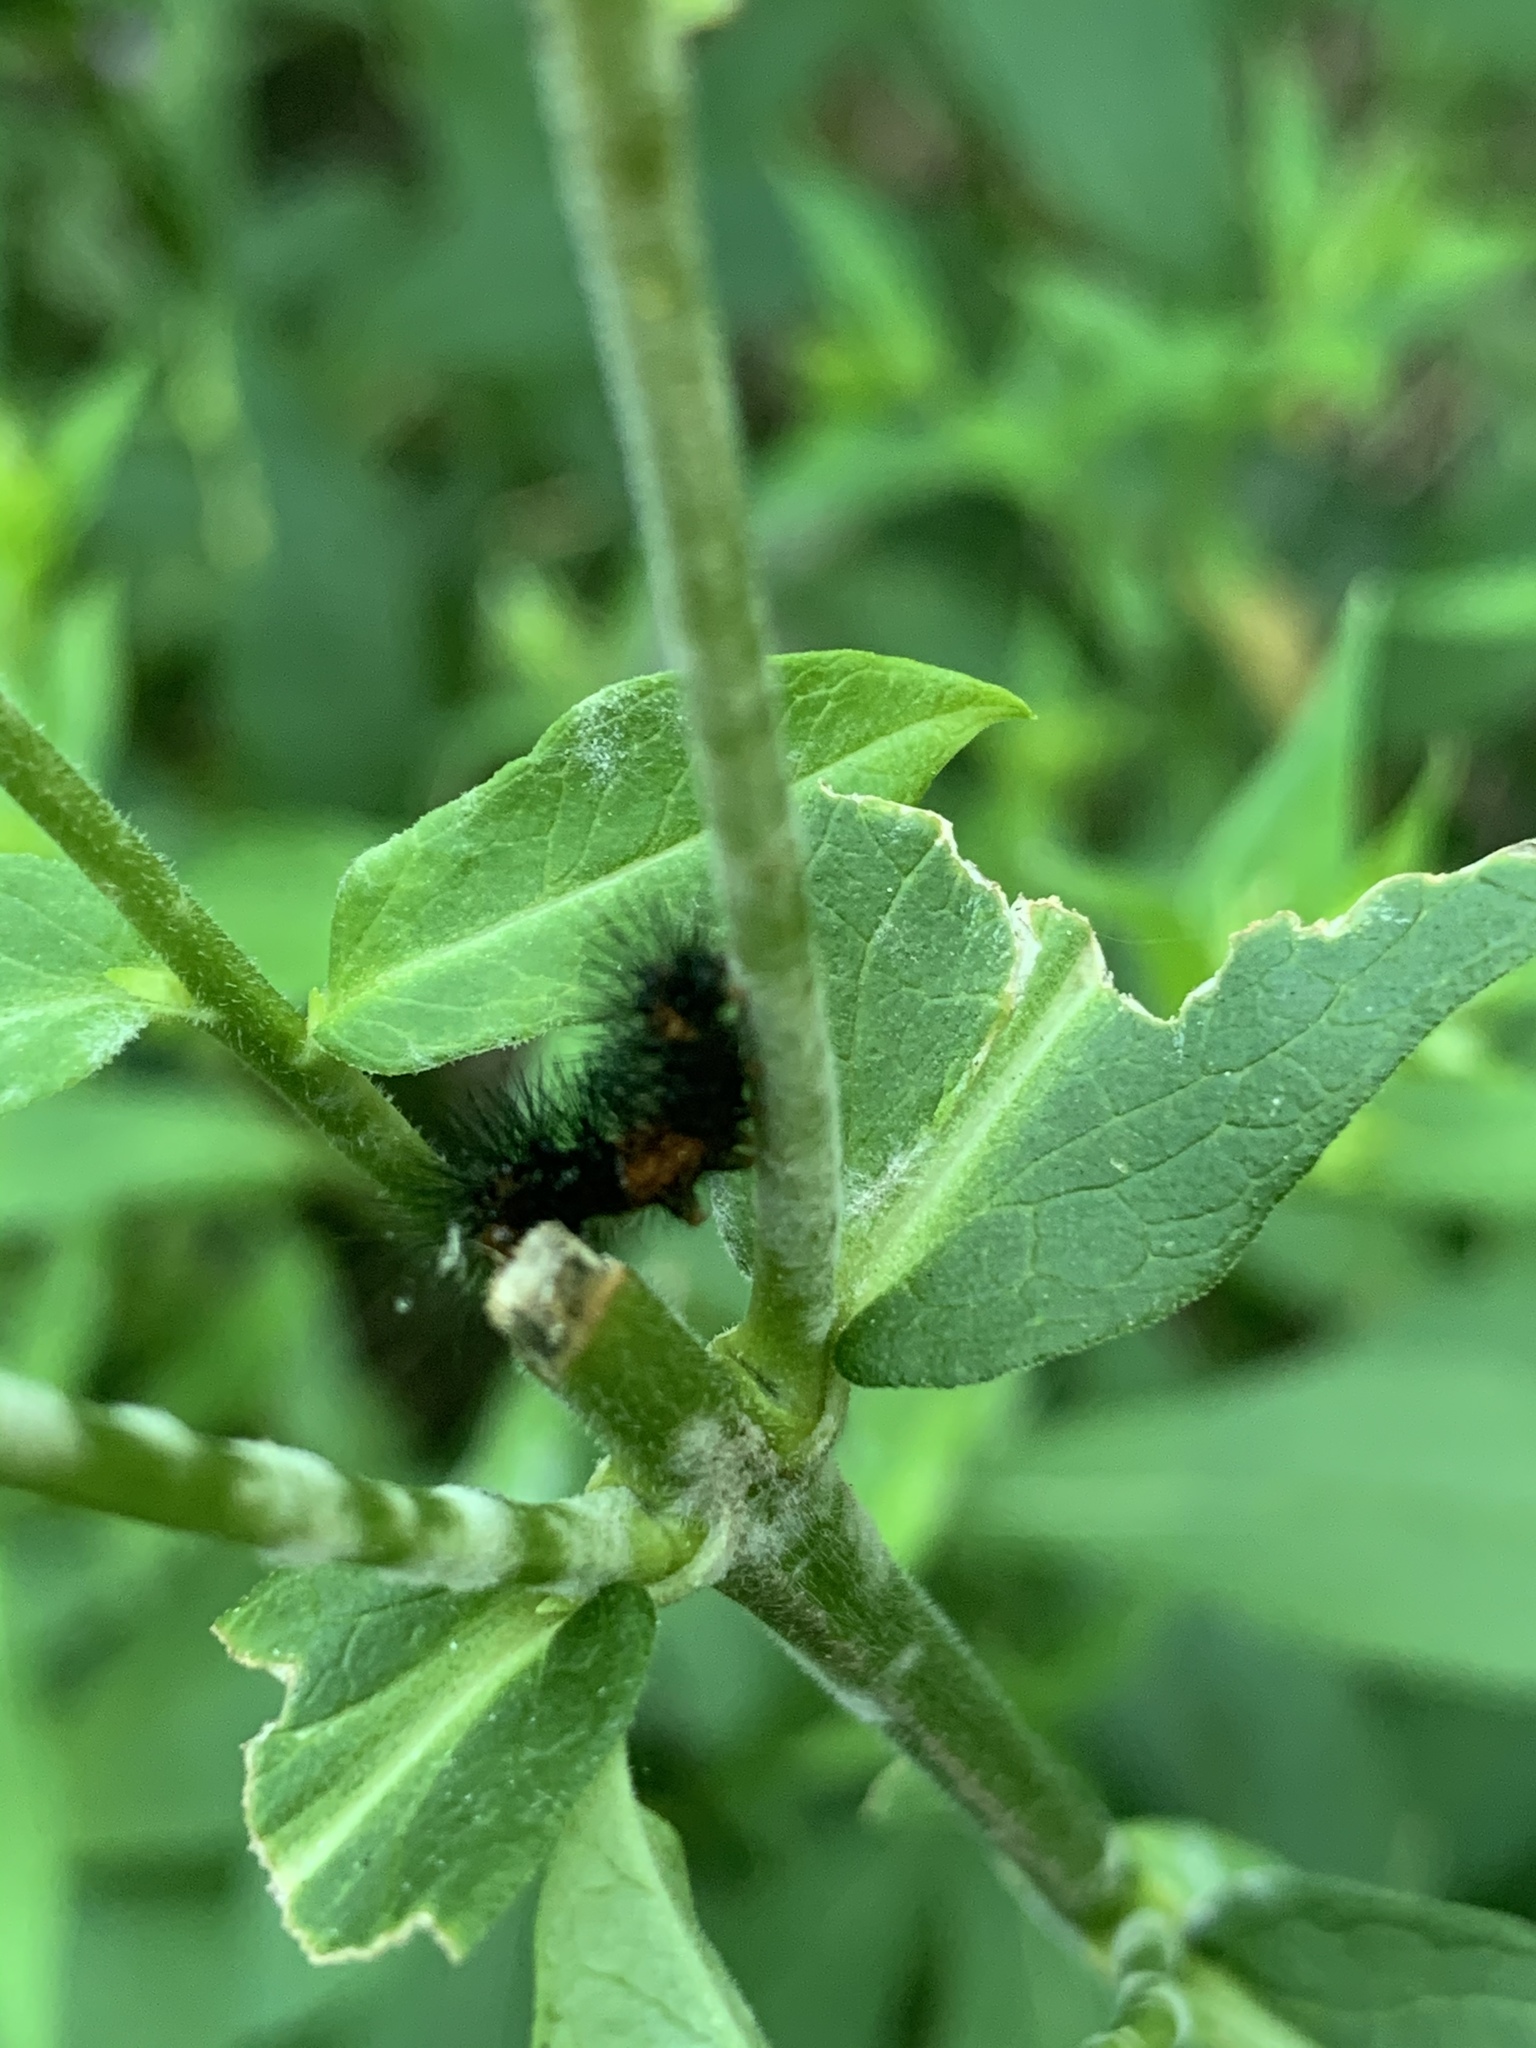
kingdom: Animalia
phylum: Arthropoda
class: Insecta
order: Lepidoptera
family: Erebidae
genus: Hypercompe
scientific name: Hypercompe scribonia
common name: Giant leopard moth
